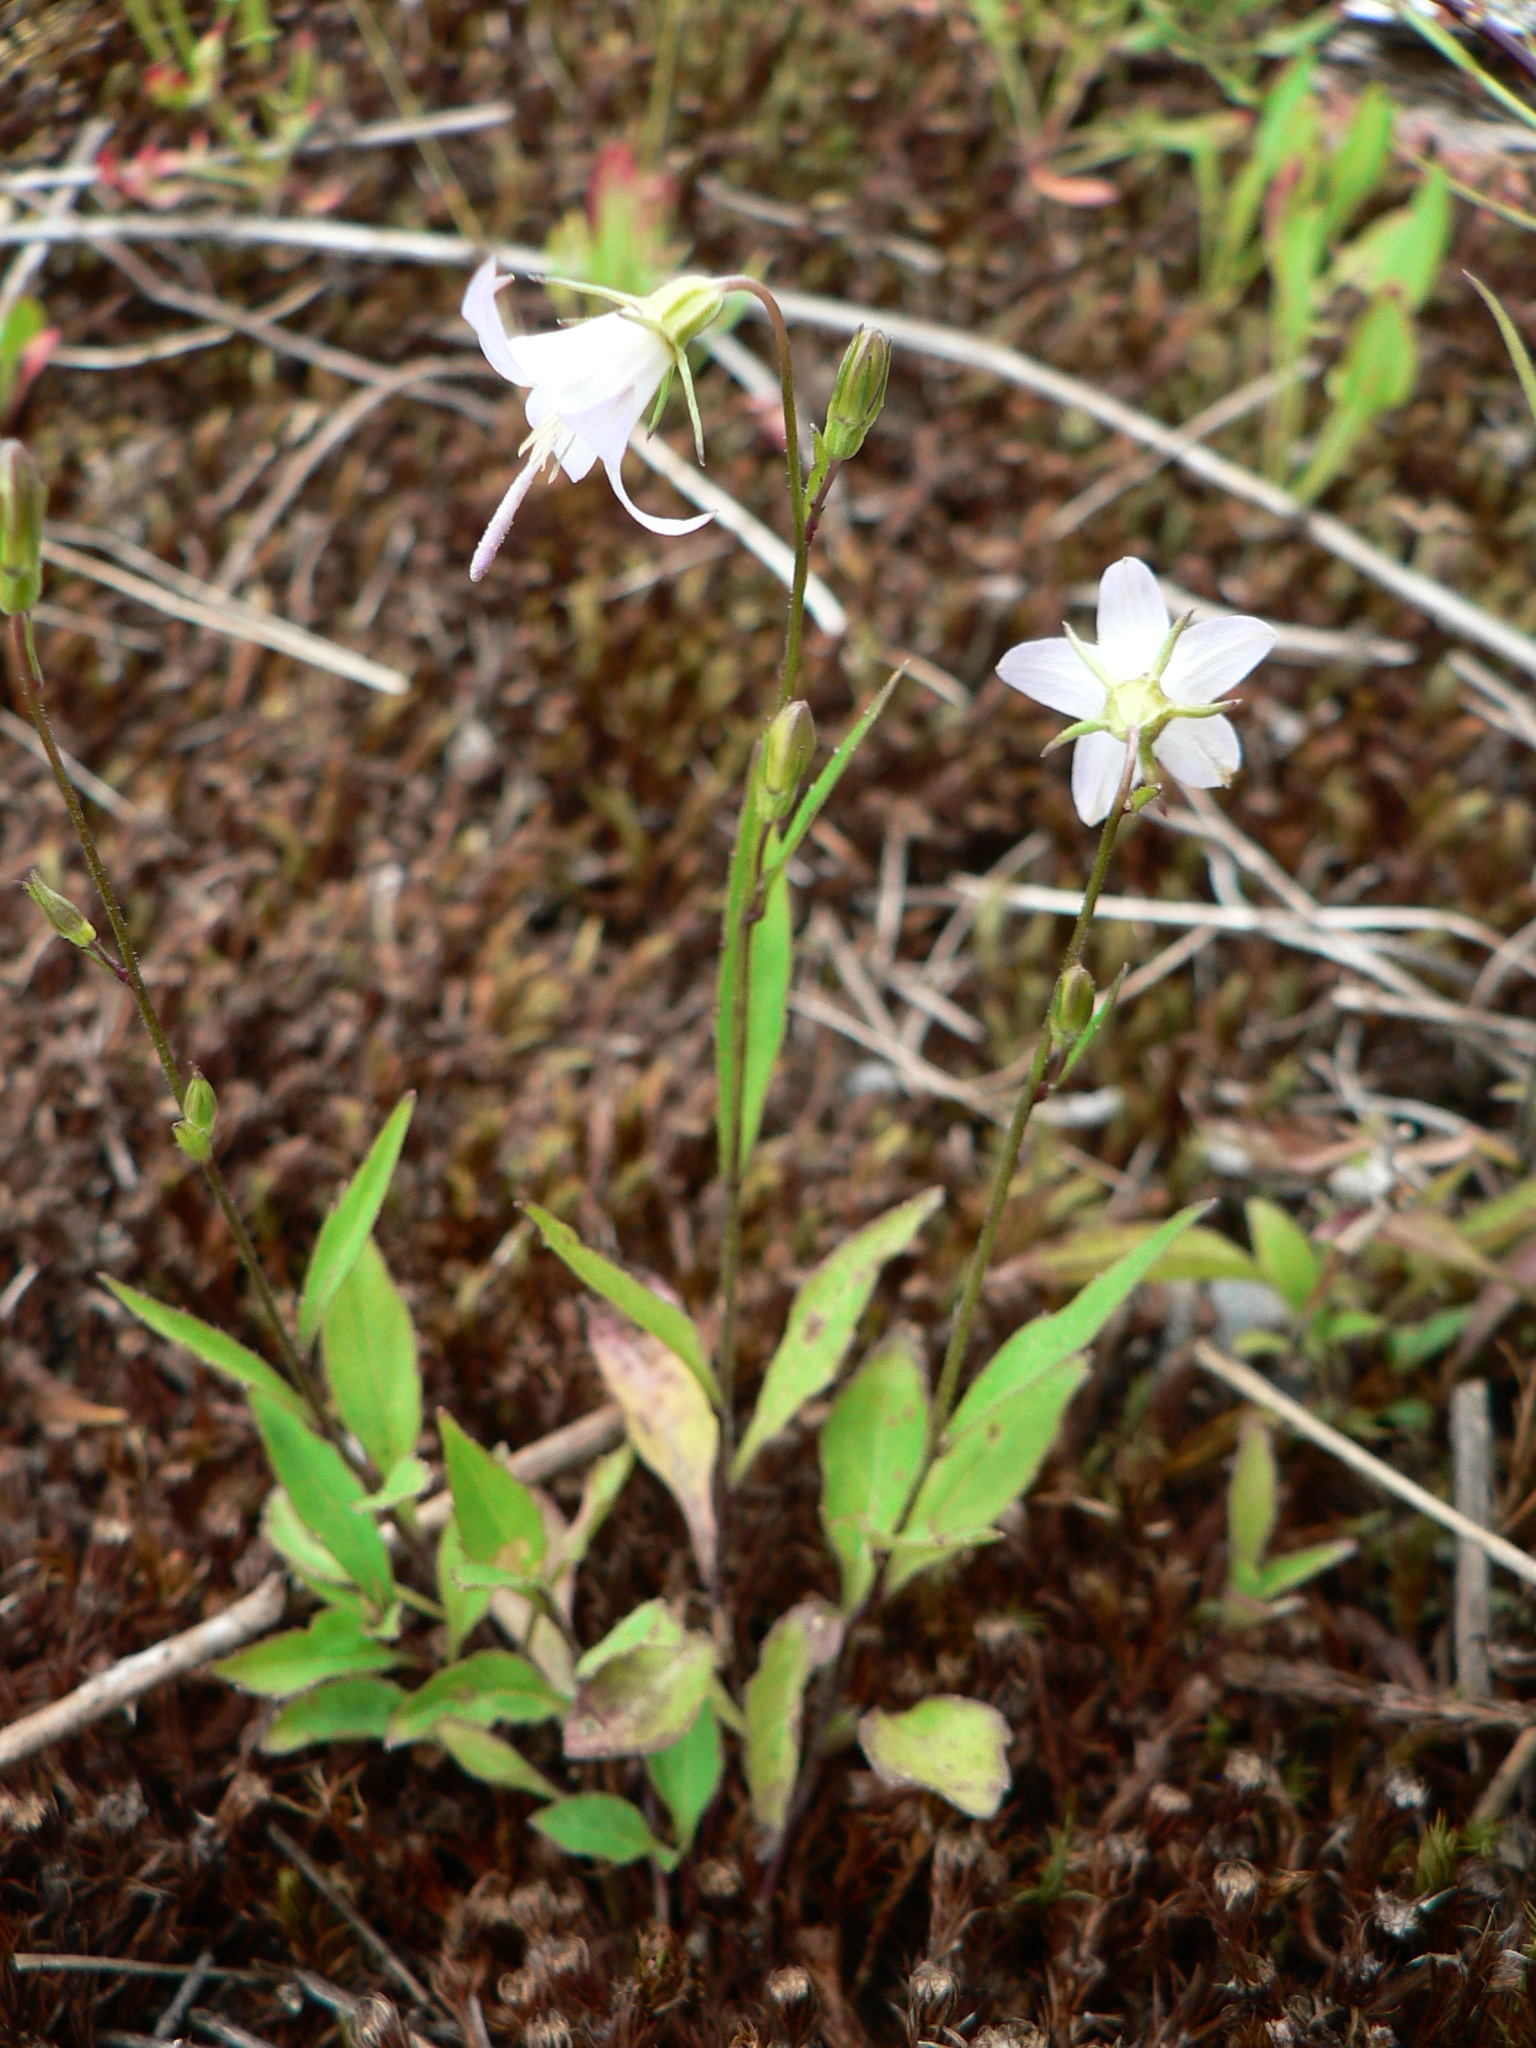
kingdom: Plantae
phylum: Tracheophyta
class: Magnoliopsida
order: Asterales
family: Campanulaceae
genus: Campanula
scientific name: Campanula scouleri
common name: Scouler's harebell
